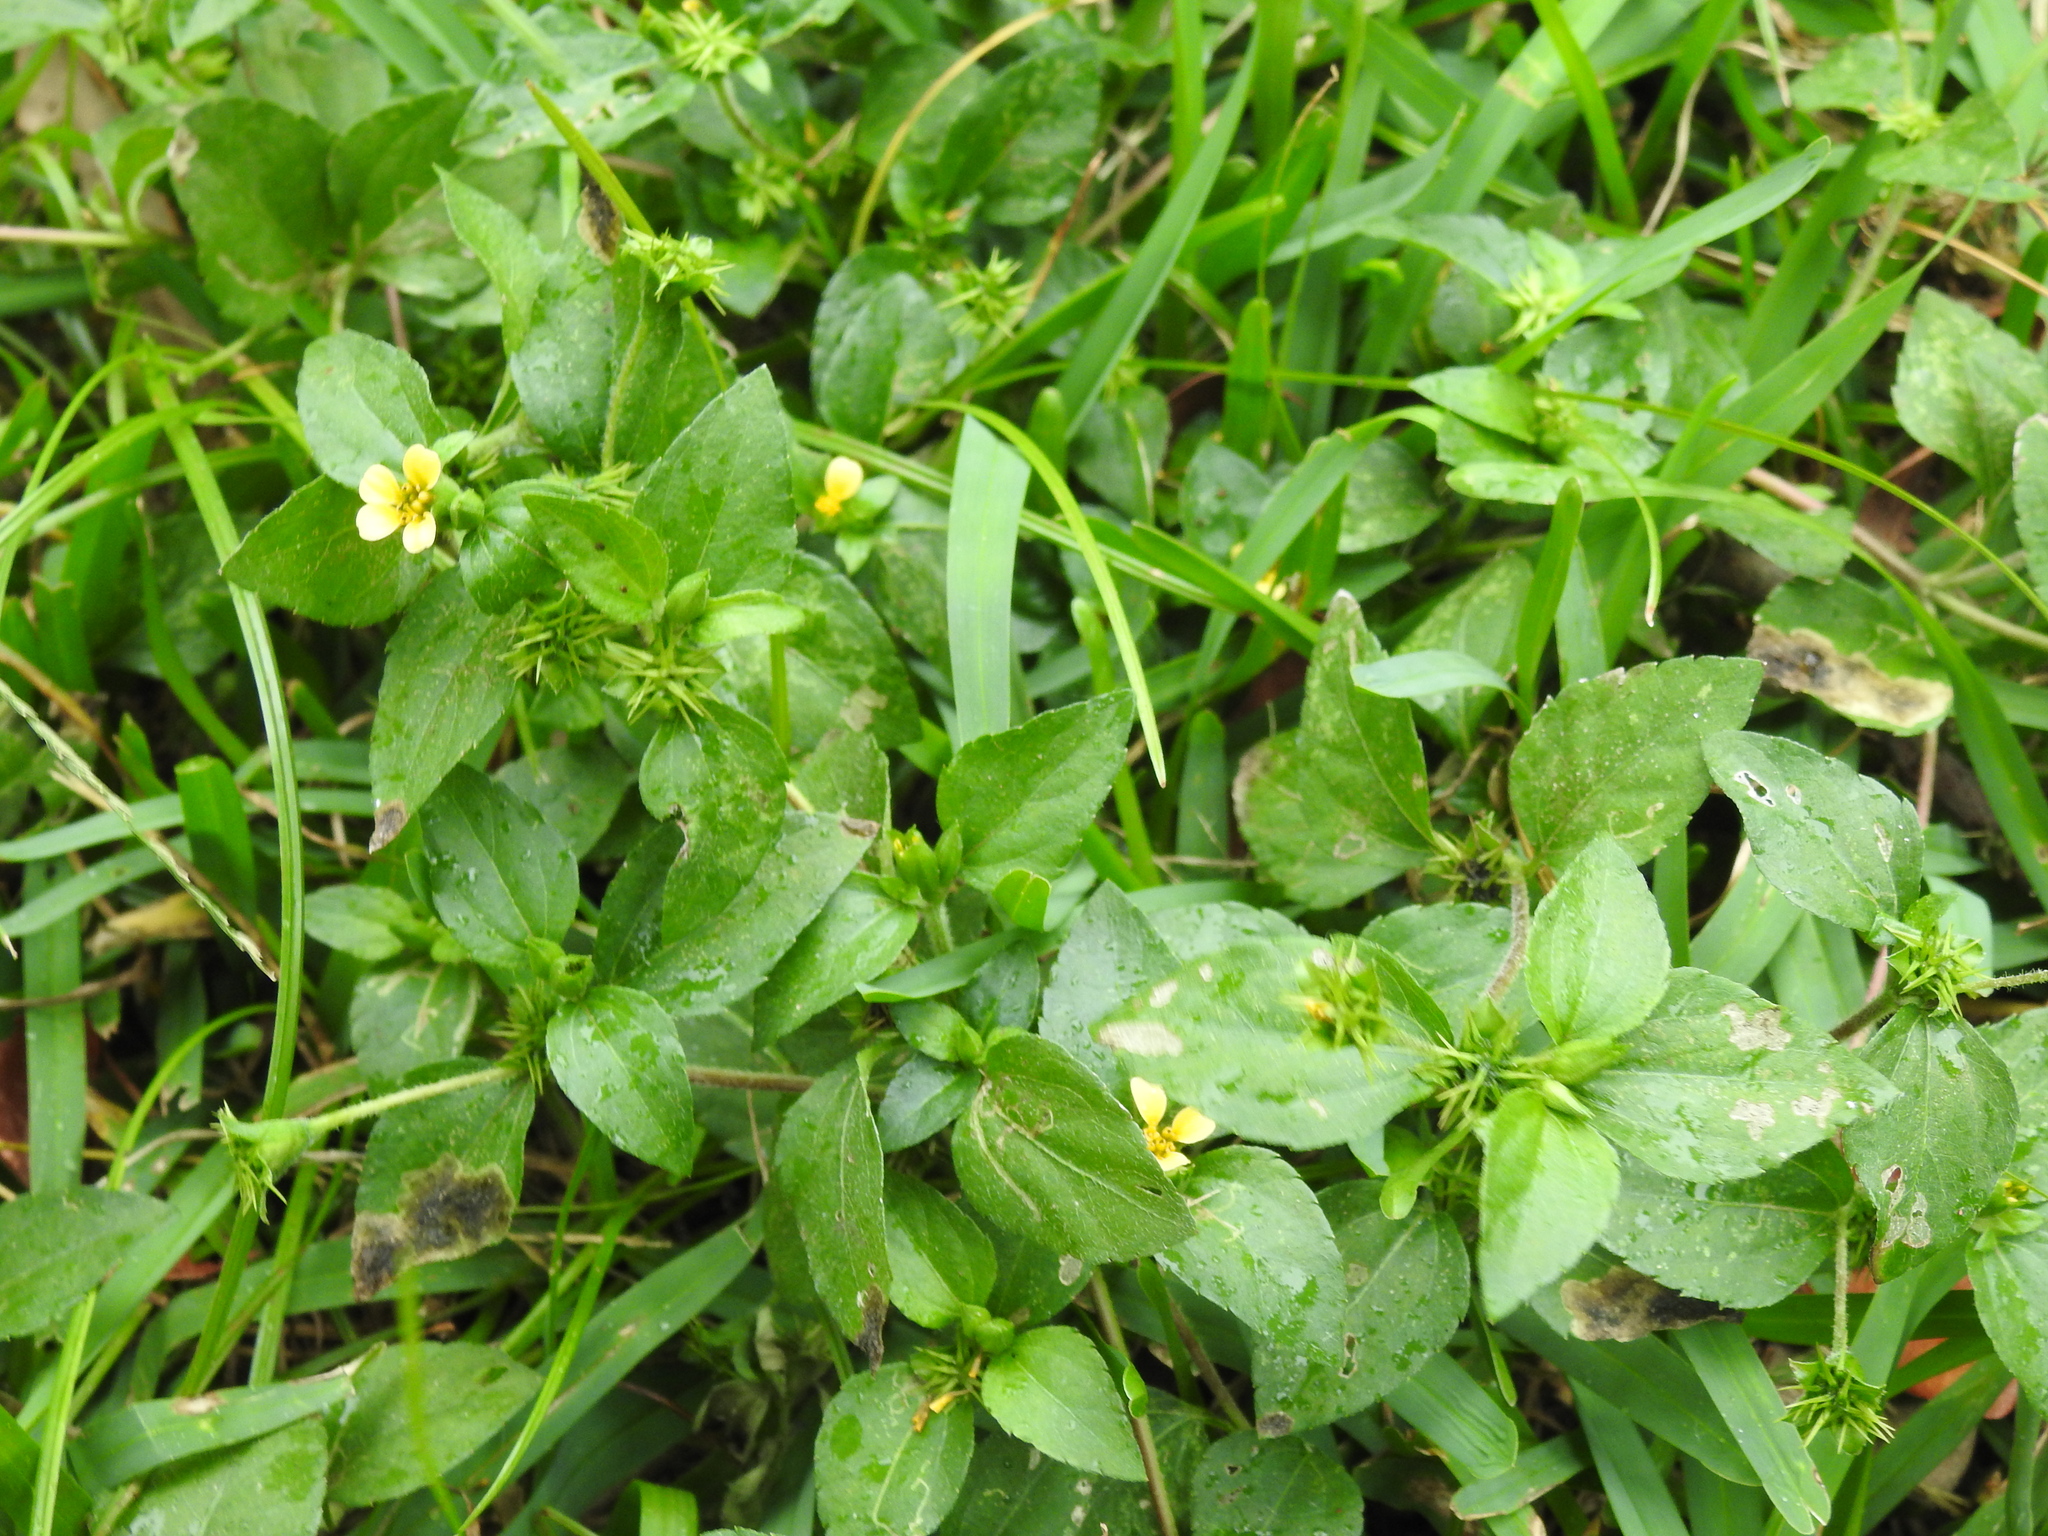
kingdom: Plantae
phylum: Tracheophyta
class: Magnoliopsida
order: Asterales
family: Asteraceae
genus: Synedrella
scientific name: Synedrella nodiflora
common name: Nodeweed
